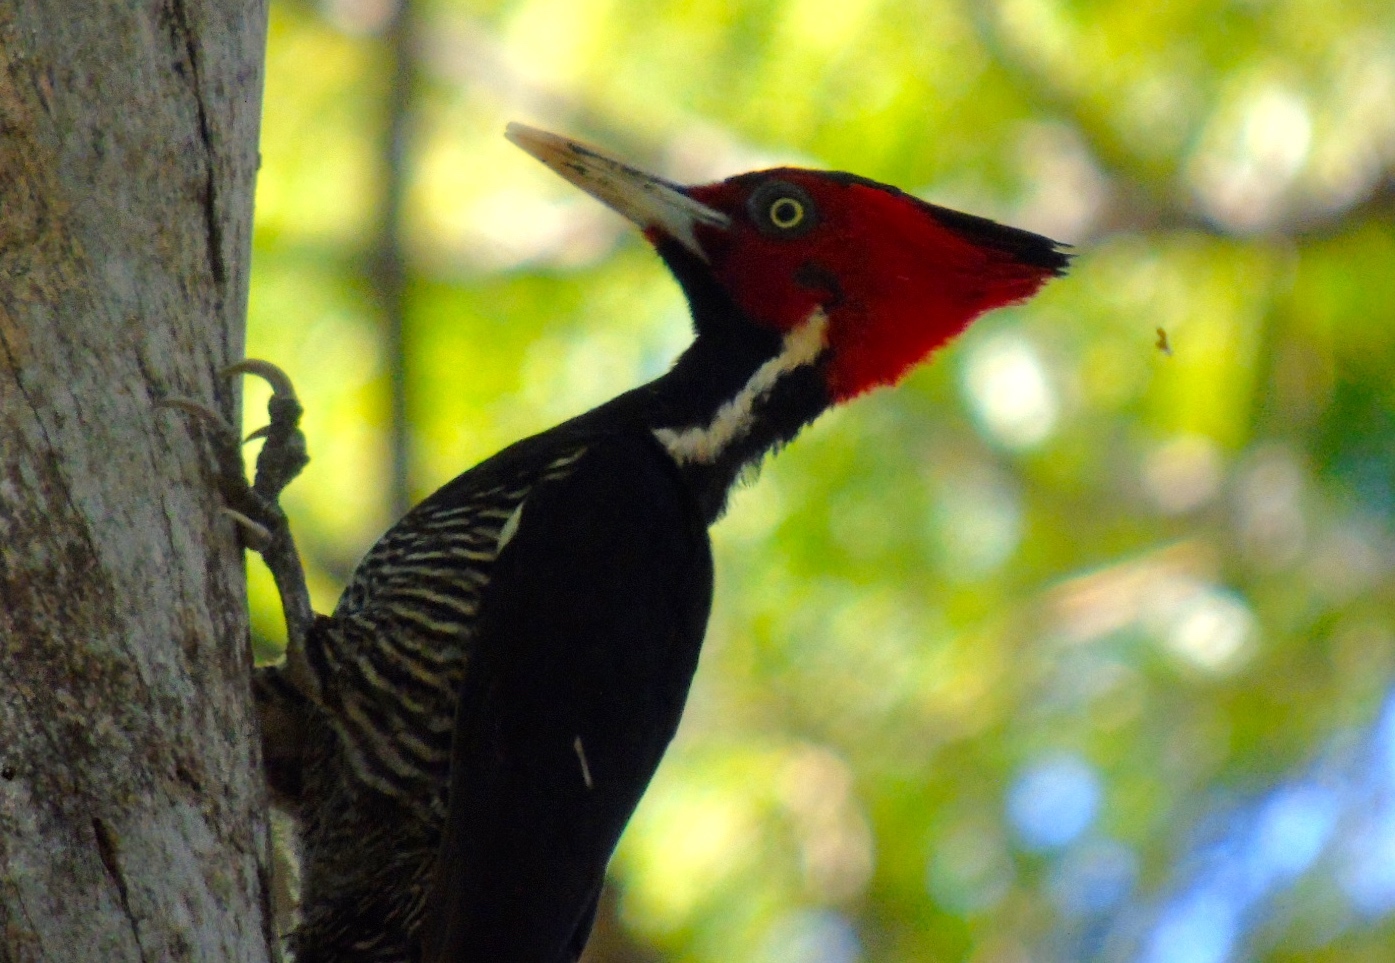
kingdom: Animalia
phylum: Chordata
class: Aves
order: Piciformes
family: Picidae
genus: Campephilus
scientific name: Campephilus guatemalensis
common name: Pale-billed woodpecker
